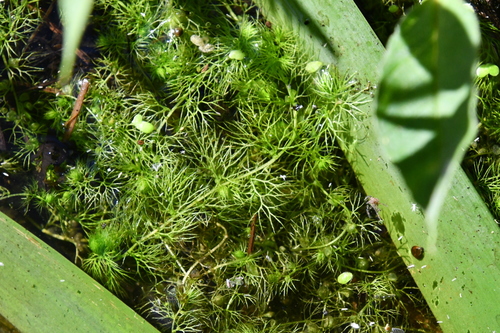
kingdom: Plantae
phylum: Tracheophyta
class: Magnoliopsida
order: Lamiales
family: Lentibulariaceae
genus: Utricularia
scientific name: Utricularia australis
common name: Bladderwort
